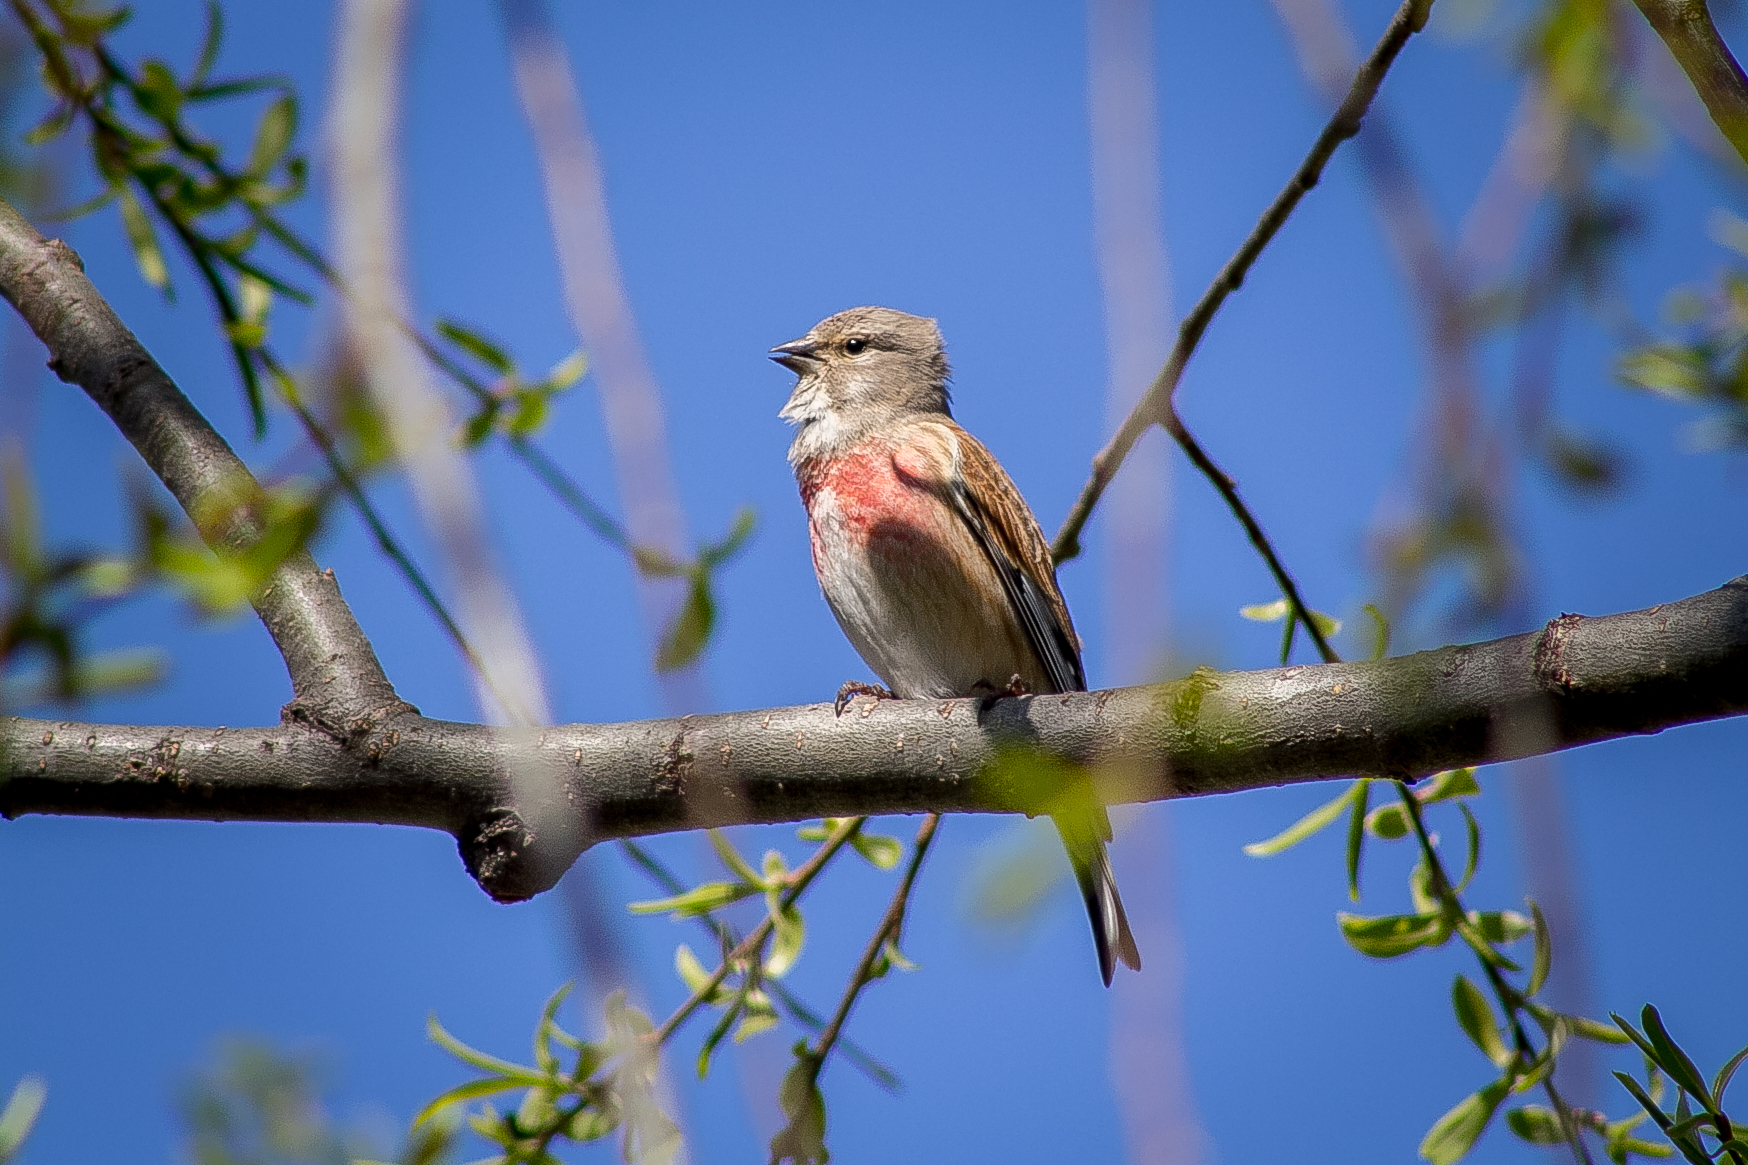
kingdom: Animalia
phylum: Chordata
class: Aves
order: Passeriformes
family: Fringillidae
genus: Linaria
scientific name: Linaria cannabina
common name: Common linnet
